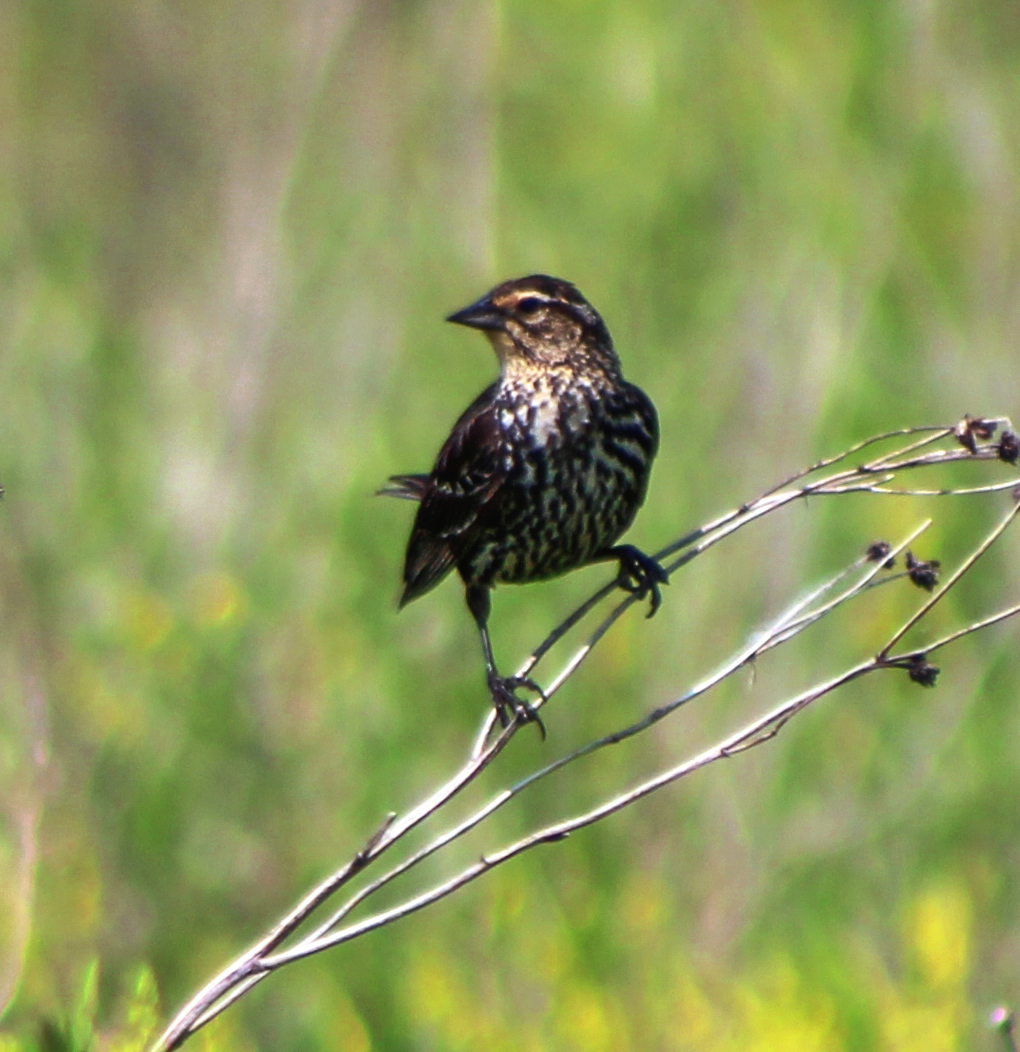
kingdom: Animalia
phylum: Chordata
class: Aves
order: Passeriformes
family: Icteridae
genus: Agelaius
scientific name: Agelaius phoeniceus
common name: Red-winged blackbird
